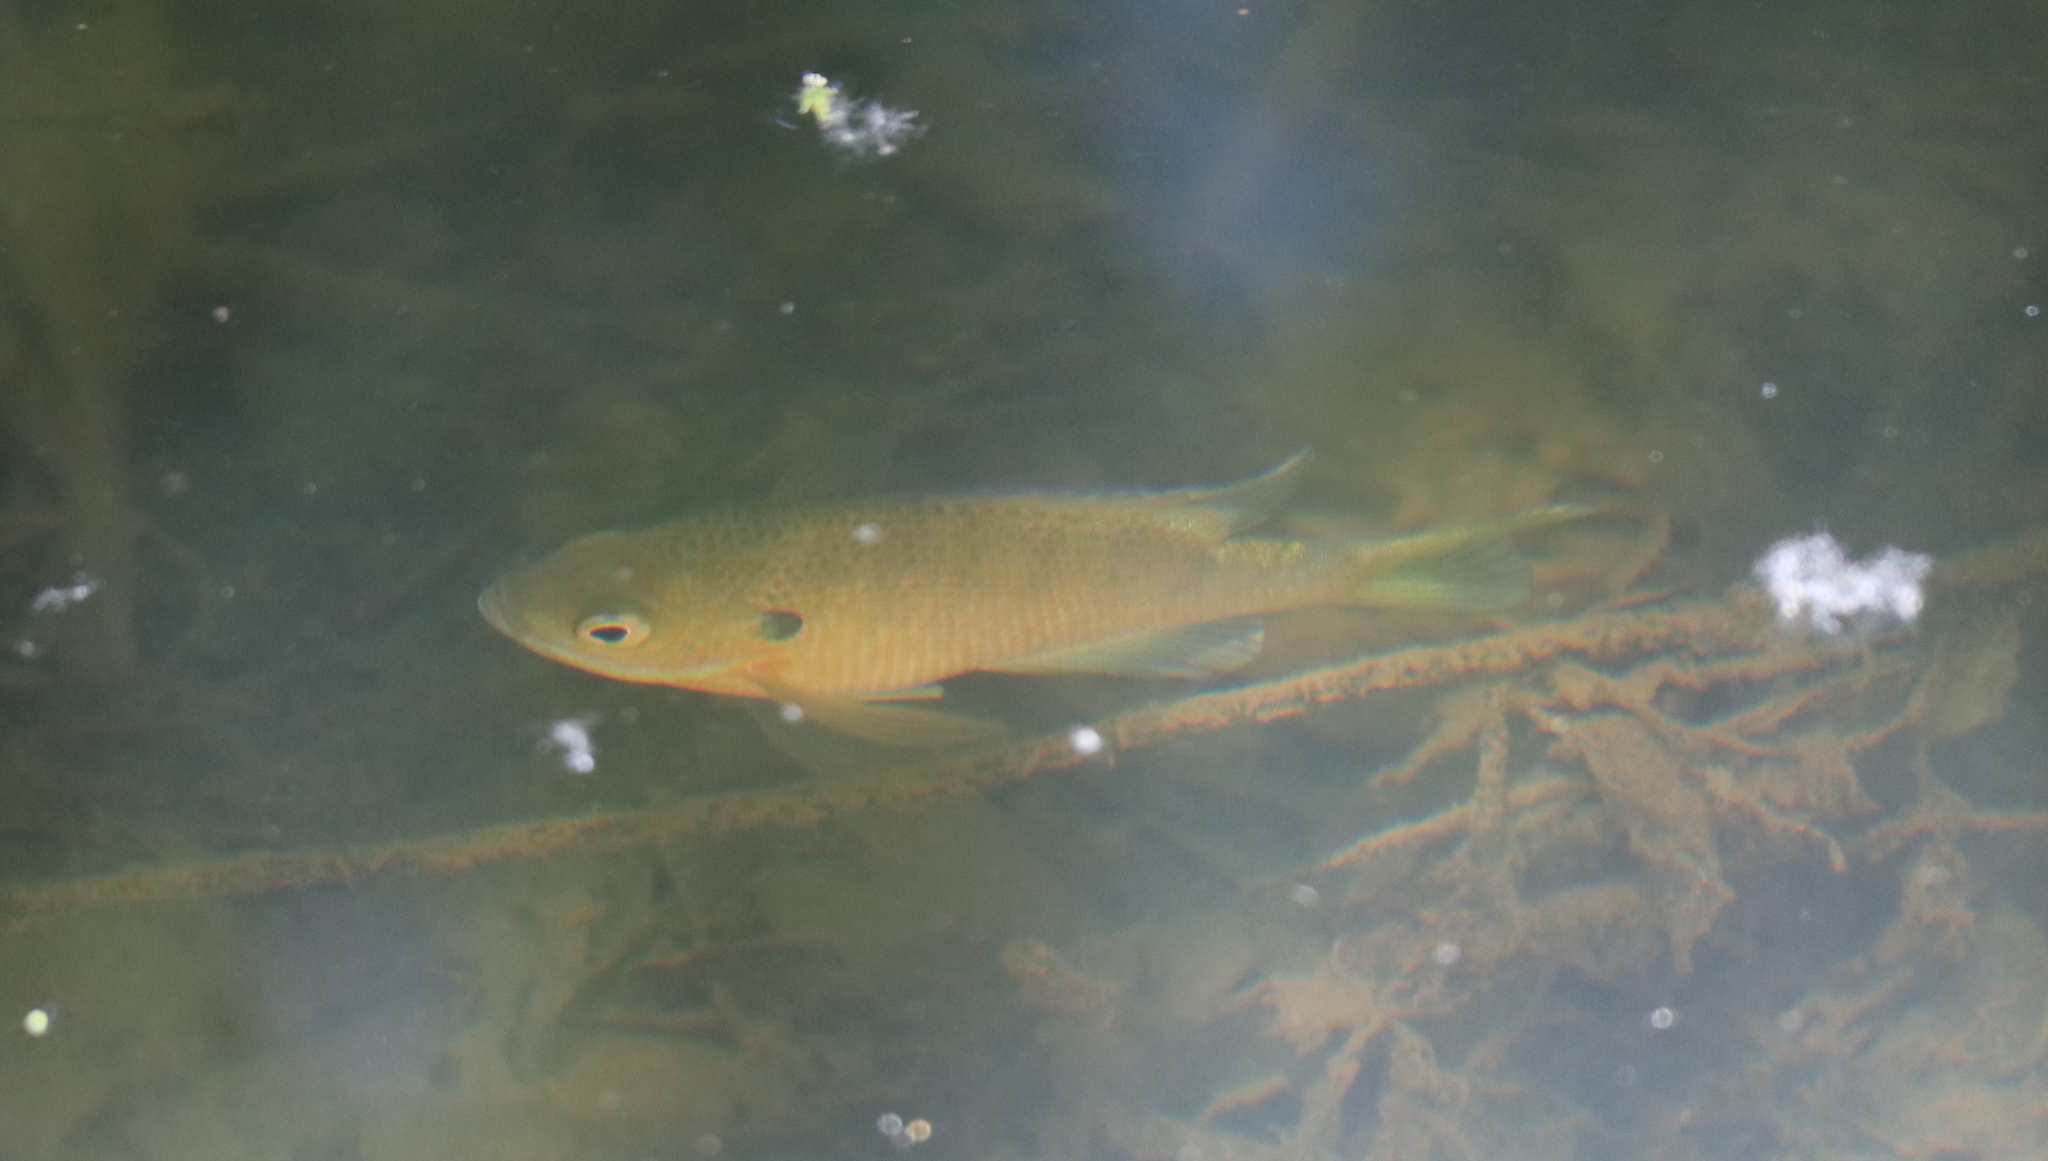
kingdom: Animalia
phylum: Chordata
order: Perciformes
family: Centrarchidae
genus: Lepomis
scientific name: Lepomis macrochirus
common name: Bluegill
